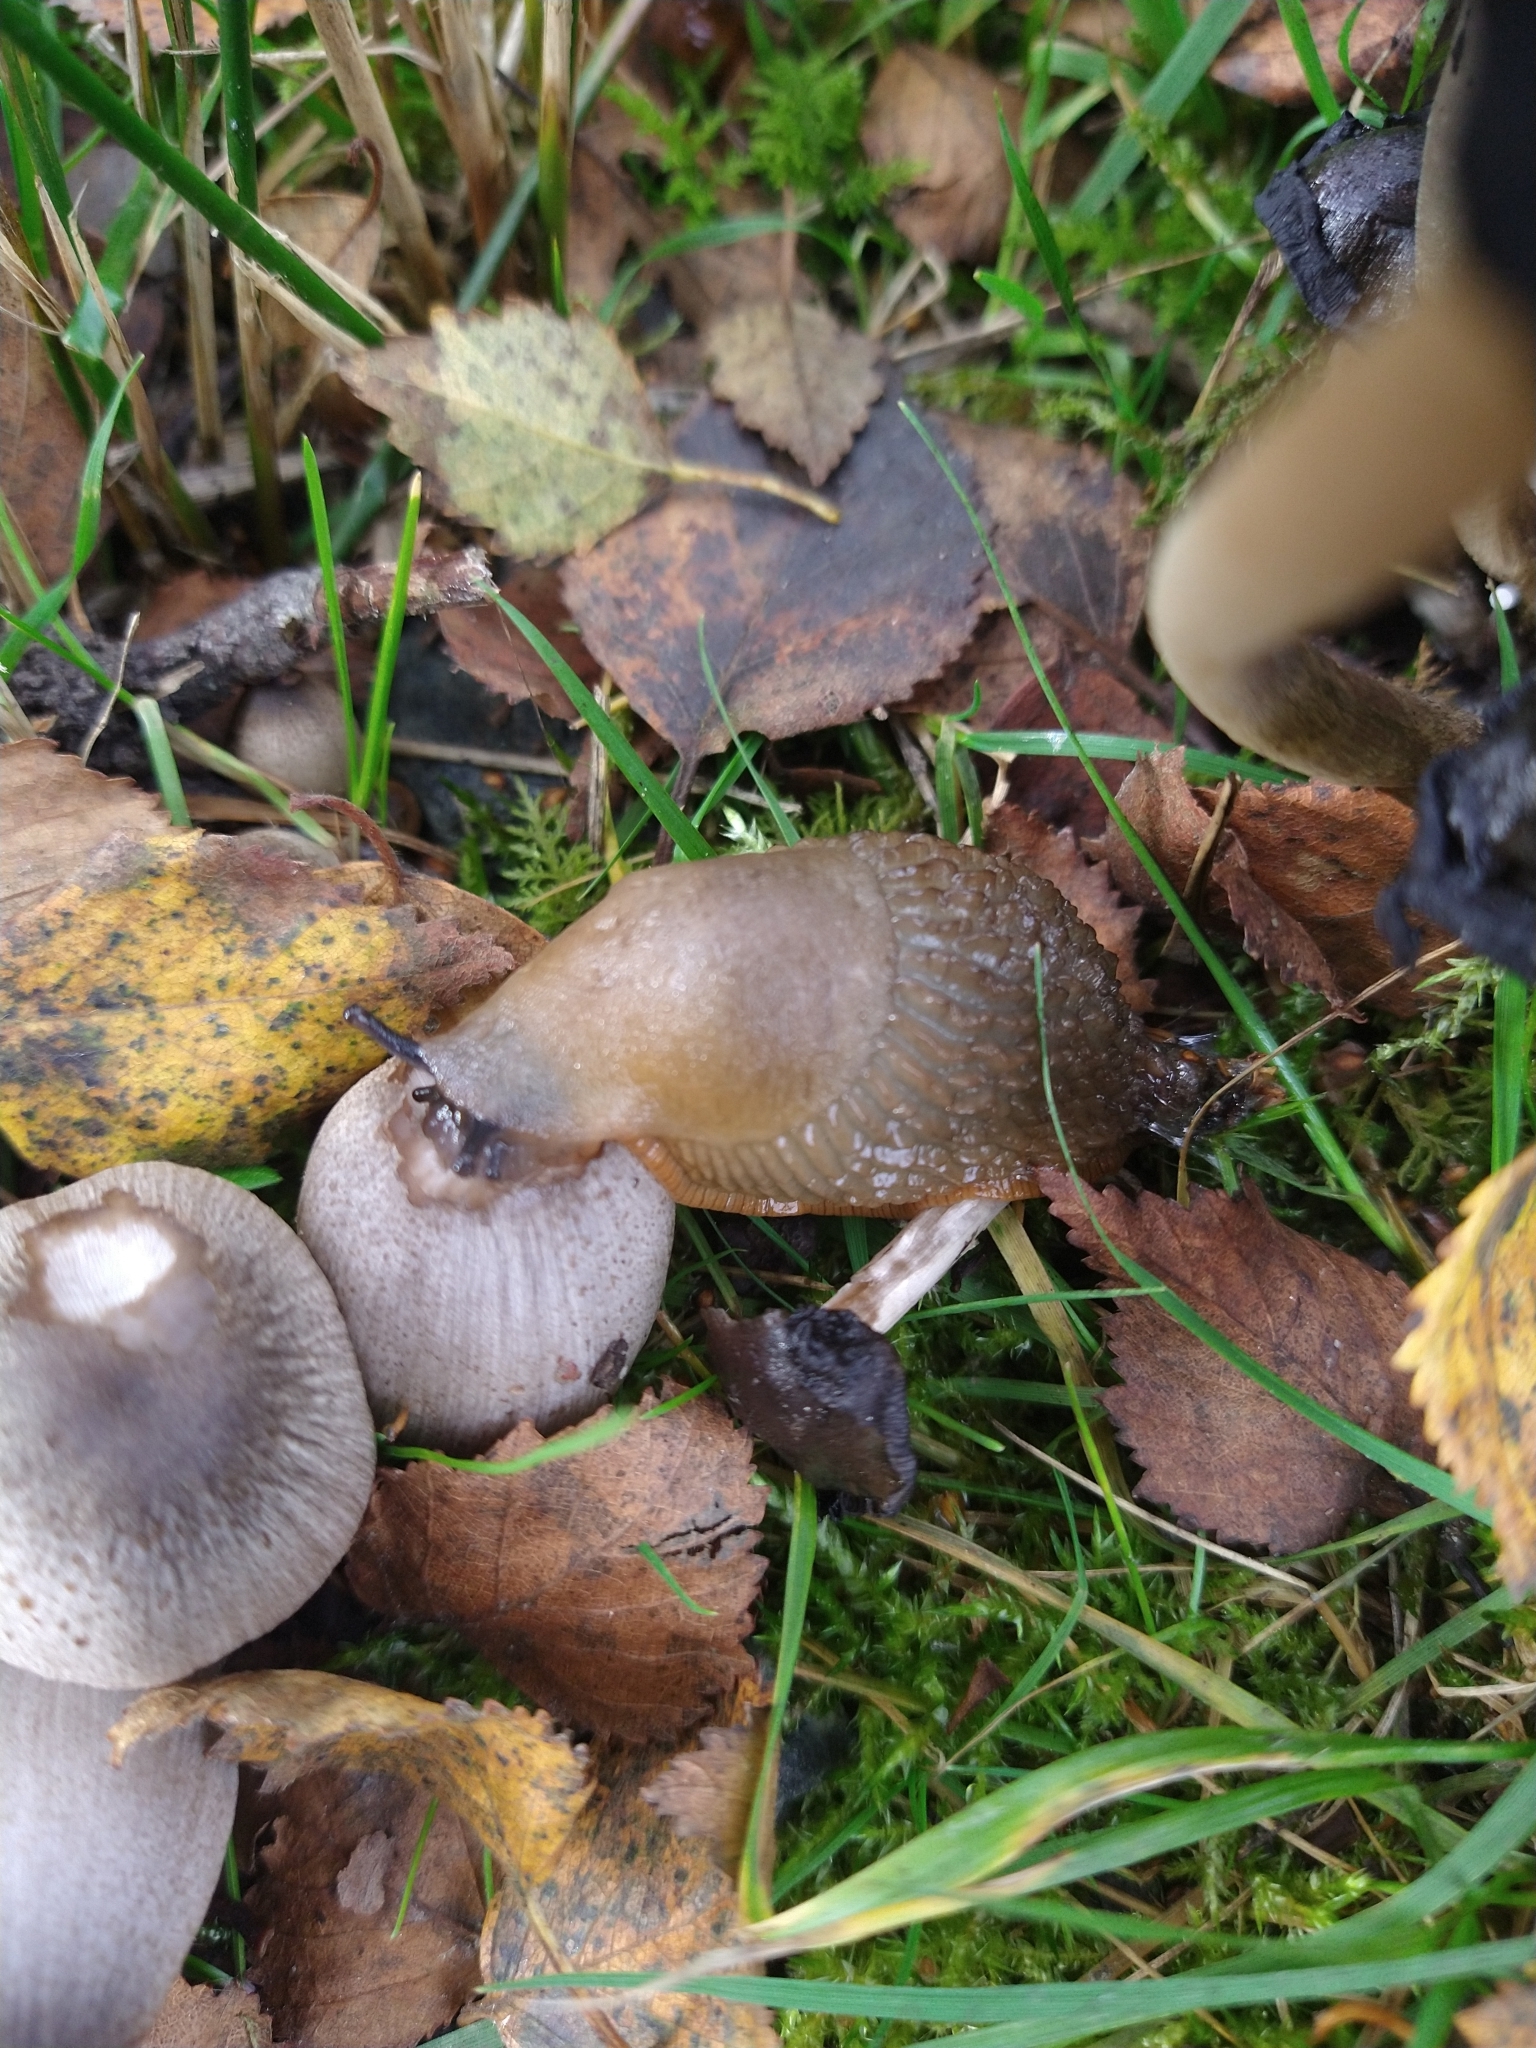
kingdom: Animalia
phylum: Mollusca
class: Gastropoda
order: Stylommatophora
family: Arionidae
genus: Arion
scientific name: Arion
